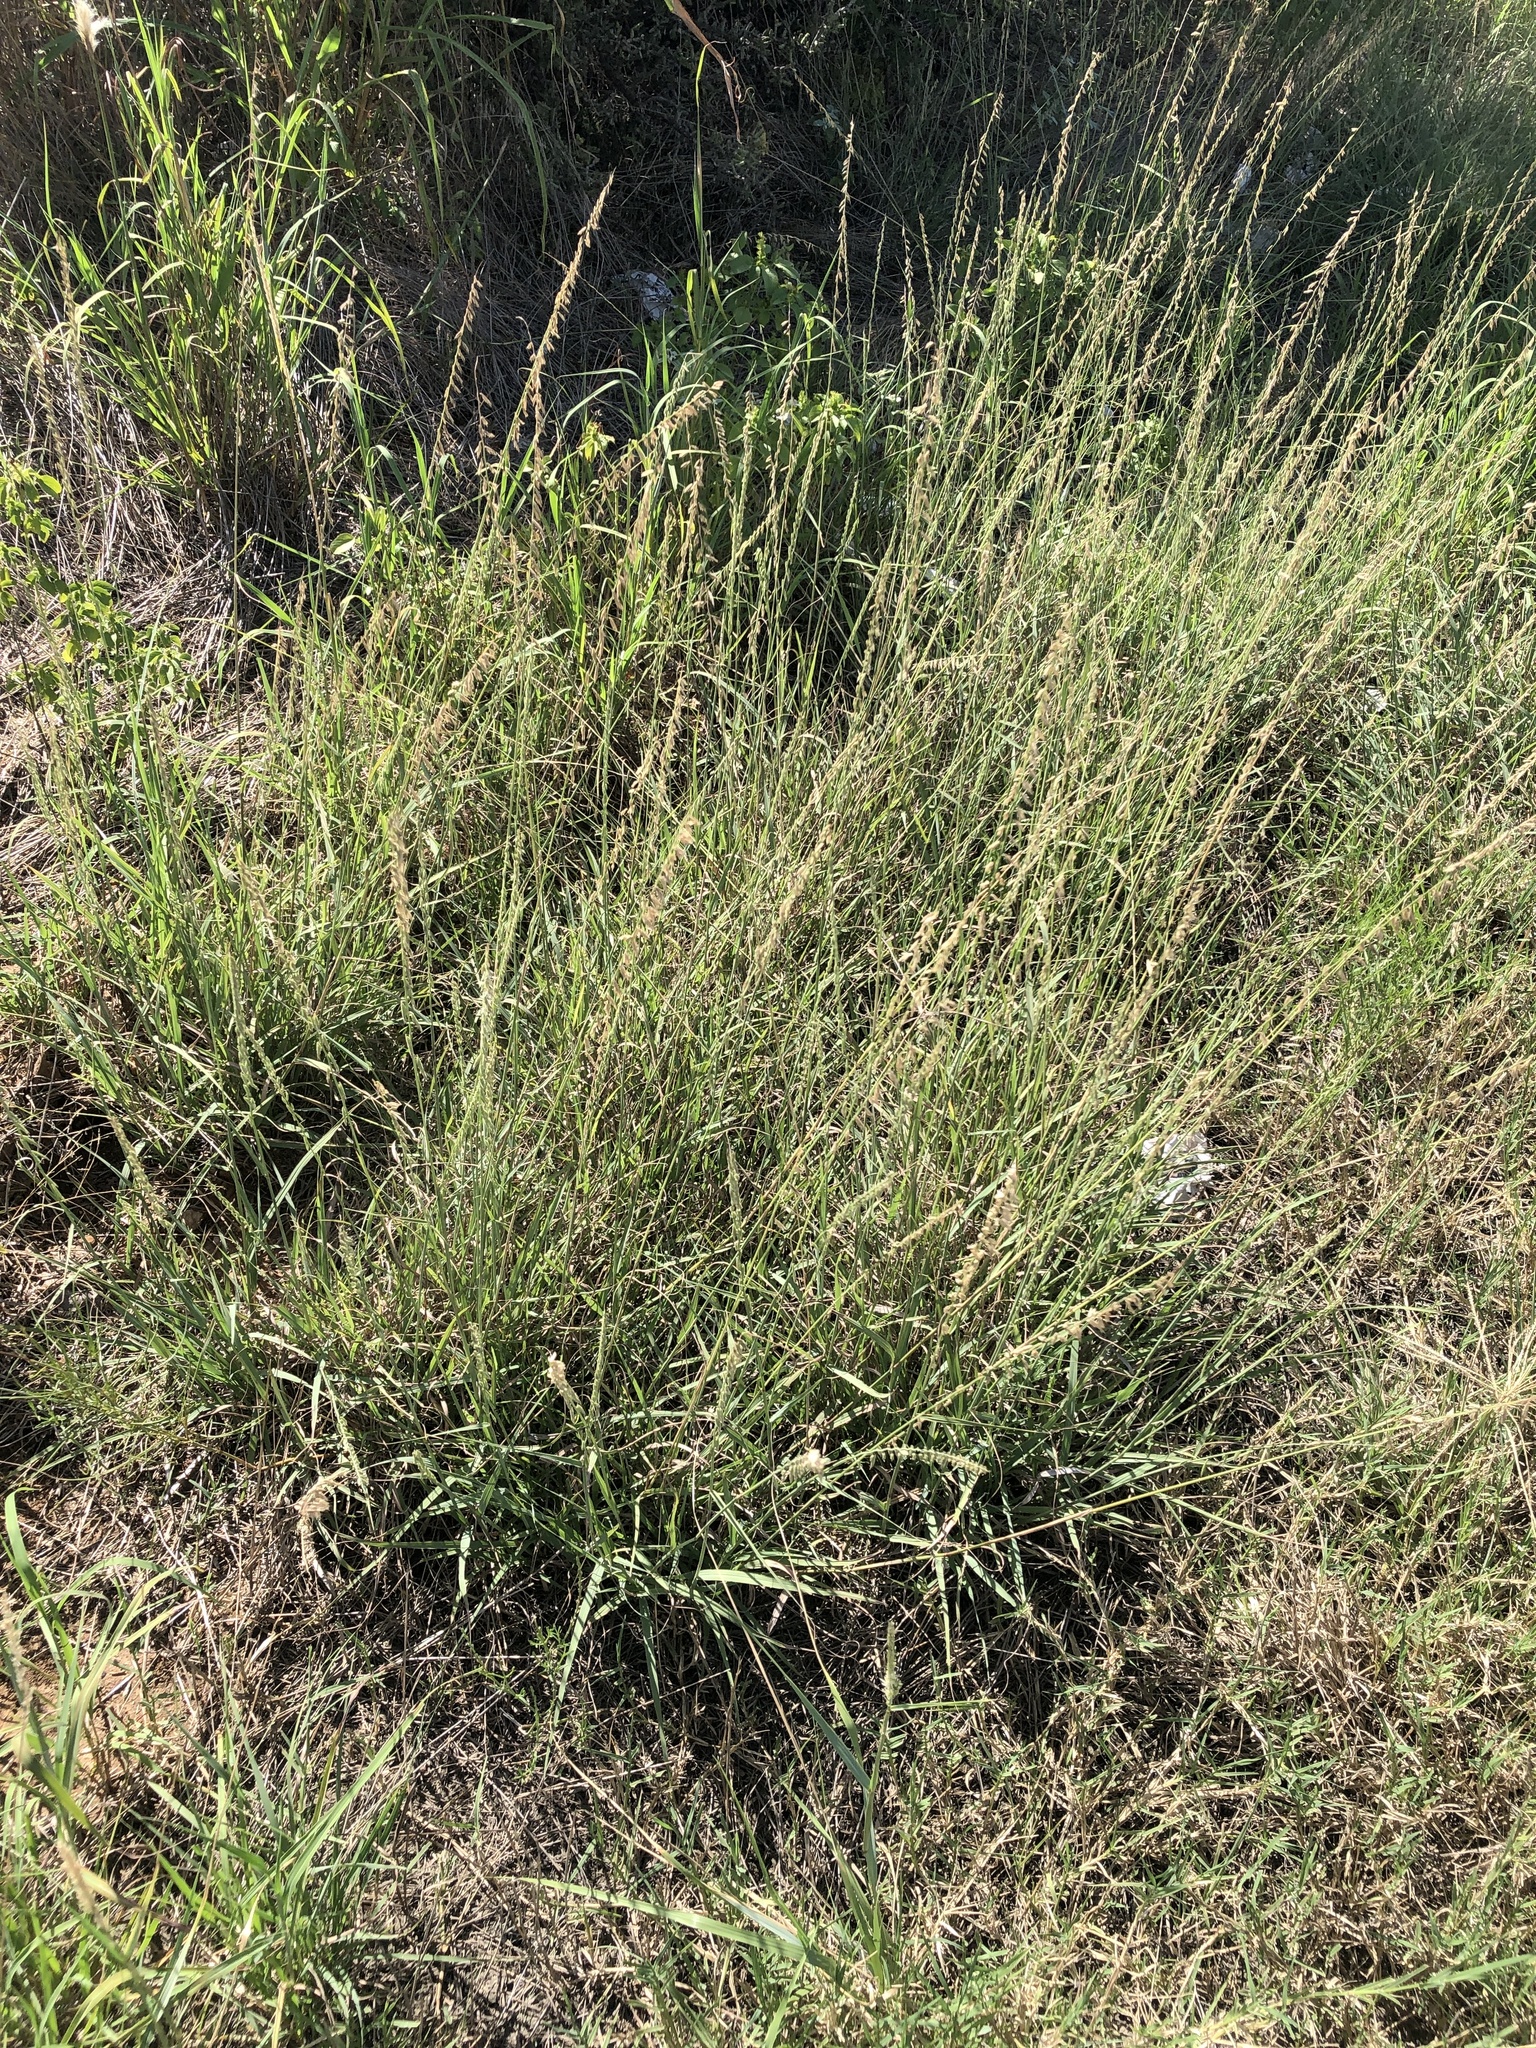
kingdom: Plantae
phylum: Tracheophyta
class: Liliopsida
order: Poales
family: Poaceae
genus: Bouteloua
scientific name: Bouteloua curtipendula
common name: Side-oats grama
